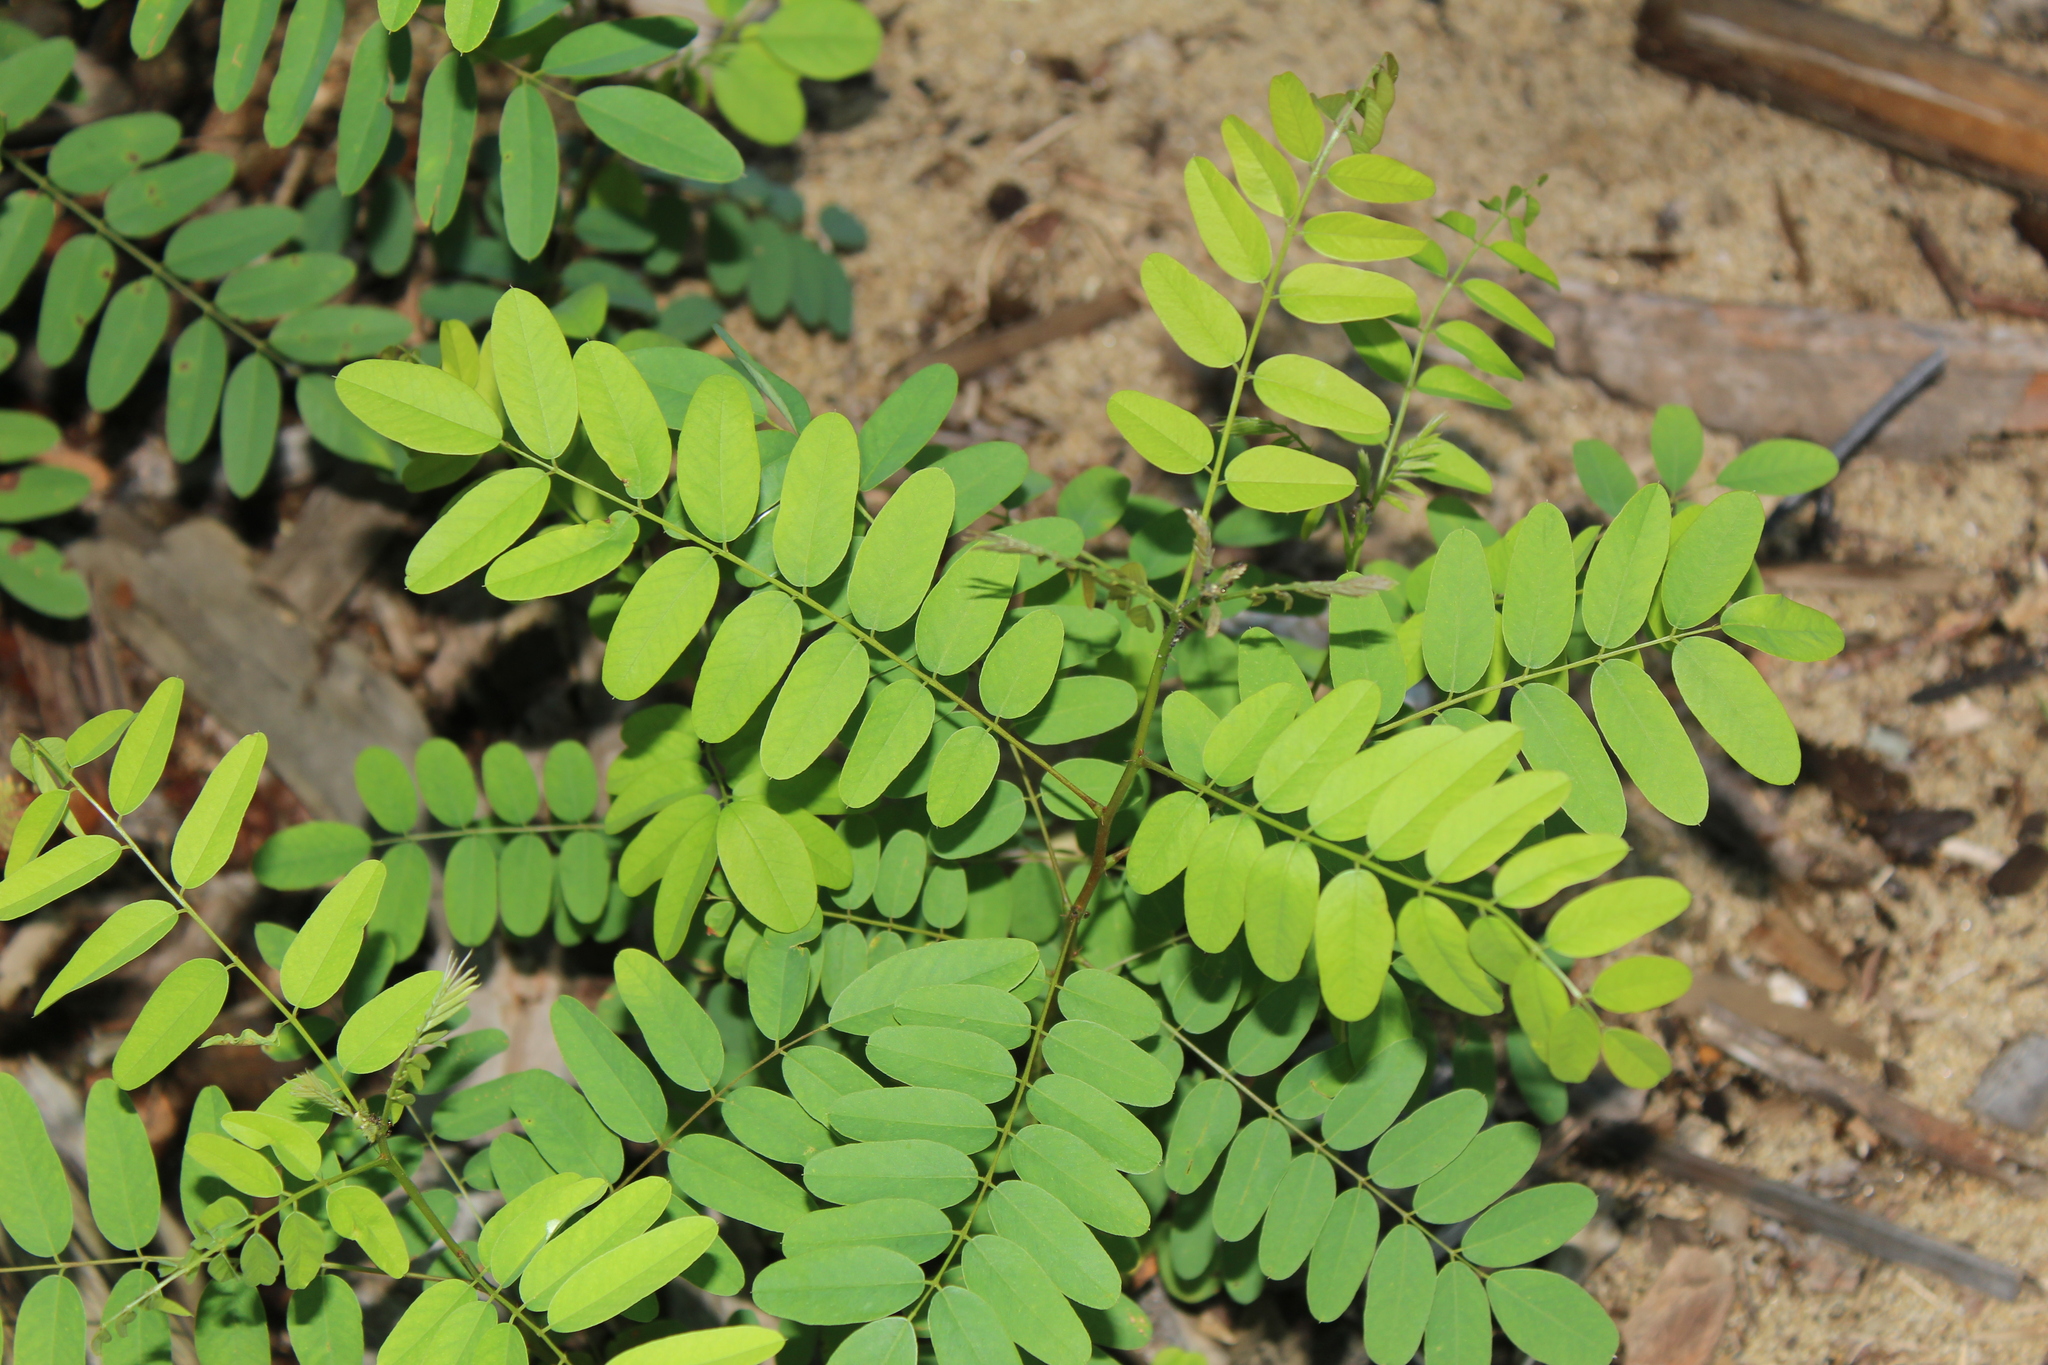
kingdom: Plantae
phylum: Tracheophyta
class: Magnoliopsida
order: Fabales
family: Fabaceae
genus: Robinia
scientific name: Robinia pseudoacacia
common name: Black locust
